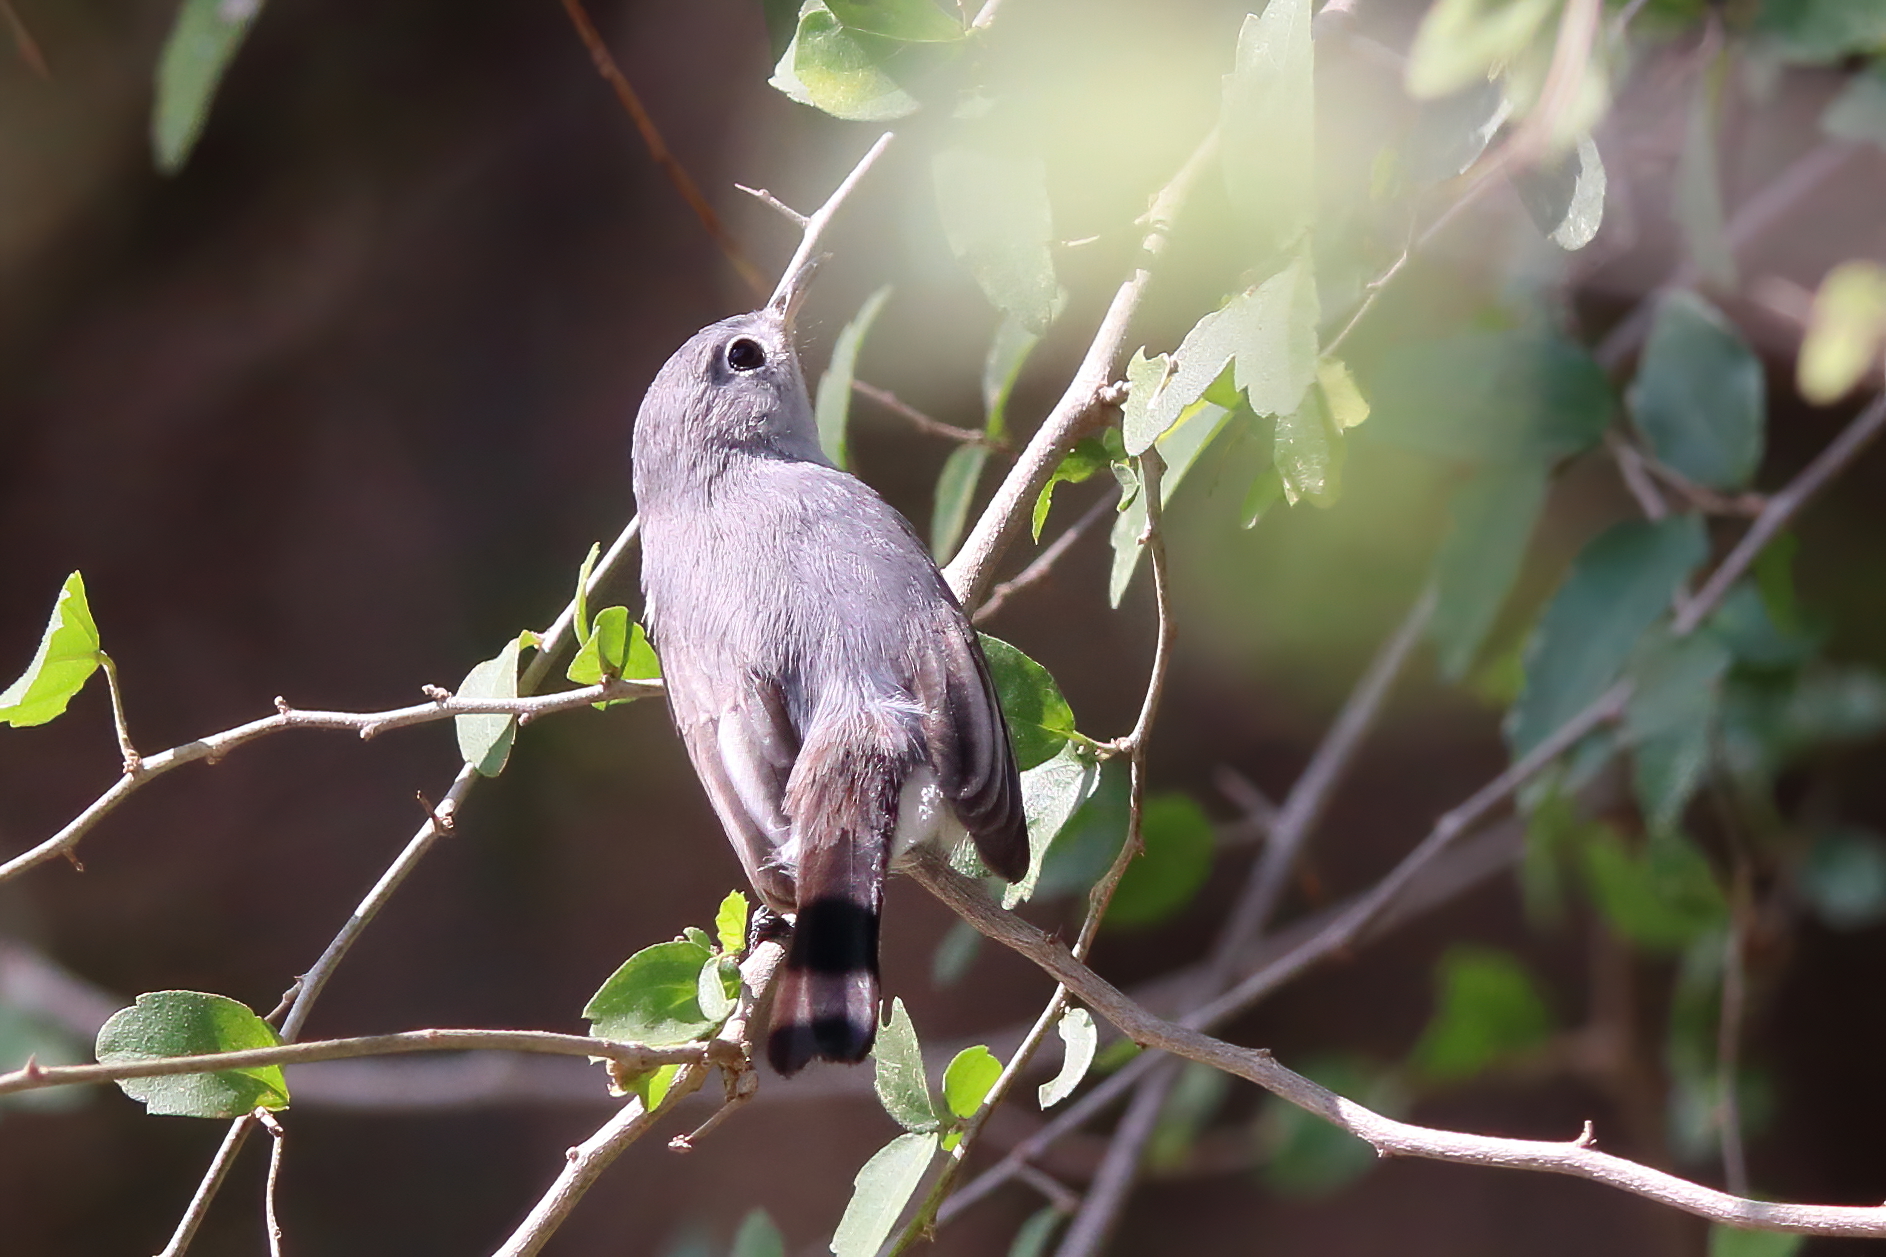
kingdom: Animalia
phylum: Chordata
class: Aves
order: Passeriformes
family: Polioptilidae
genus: Polioptila
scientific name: Polioptila caerulea
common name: Blue-gray gnatcatcher
